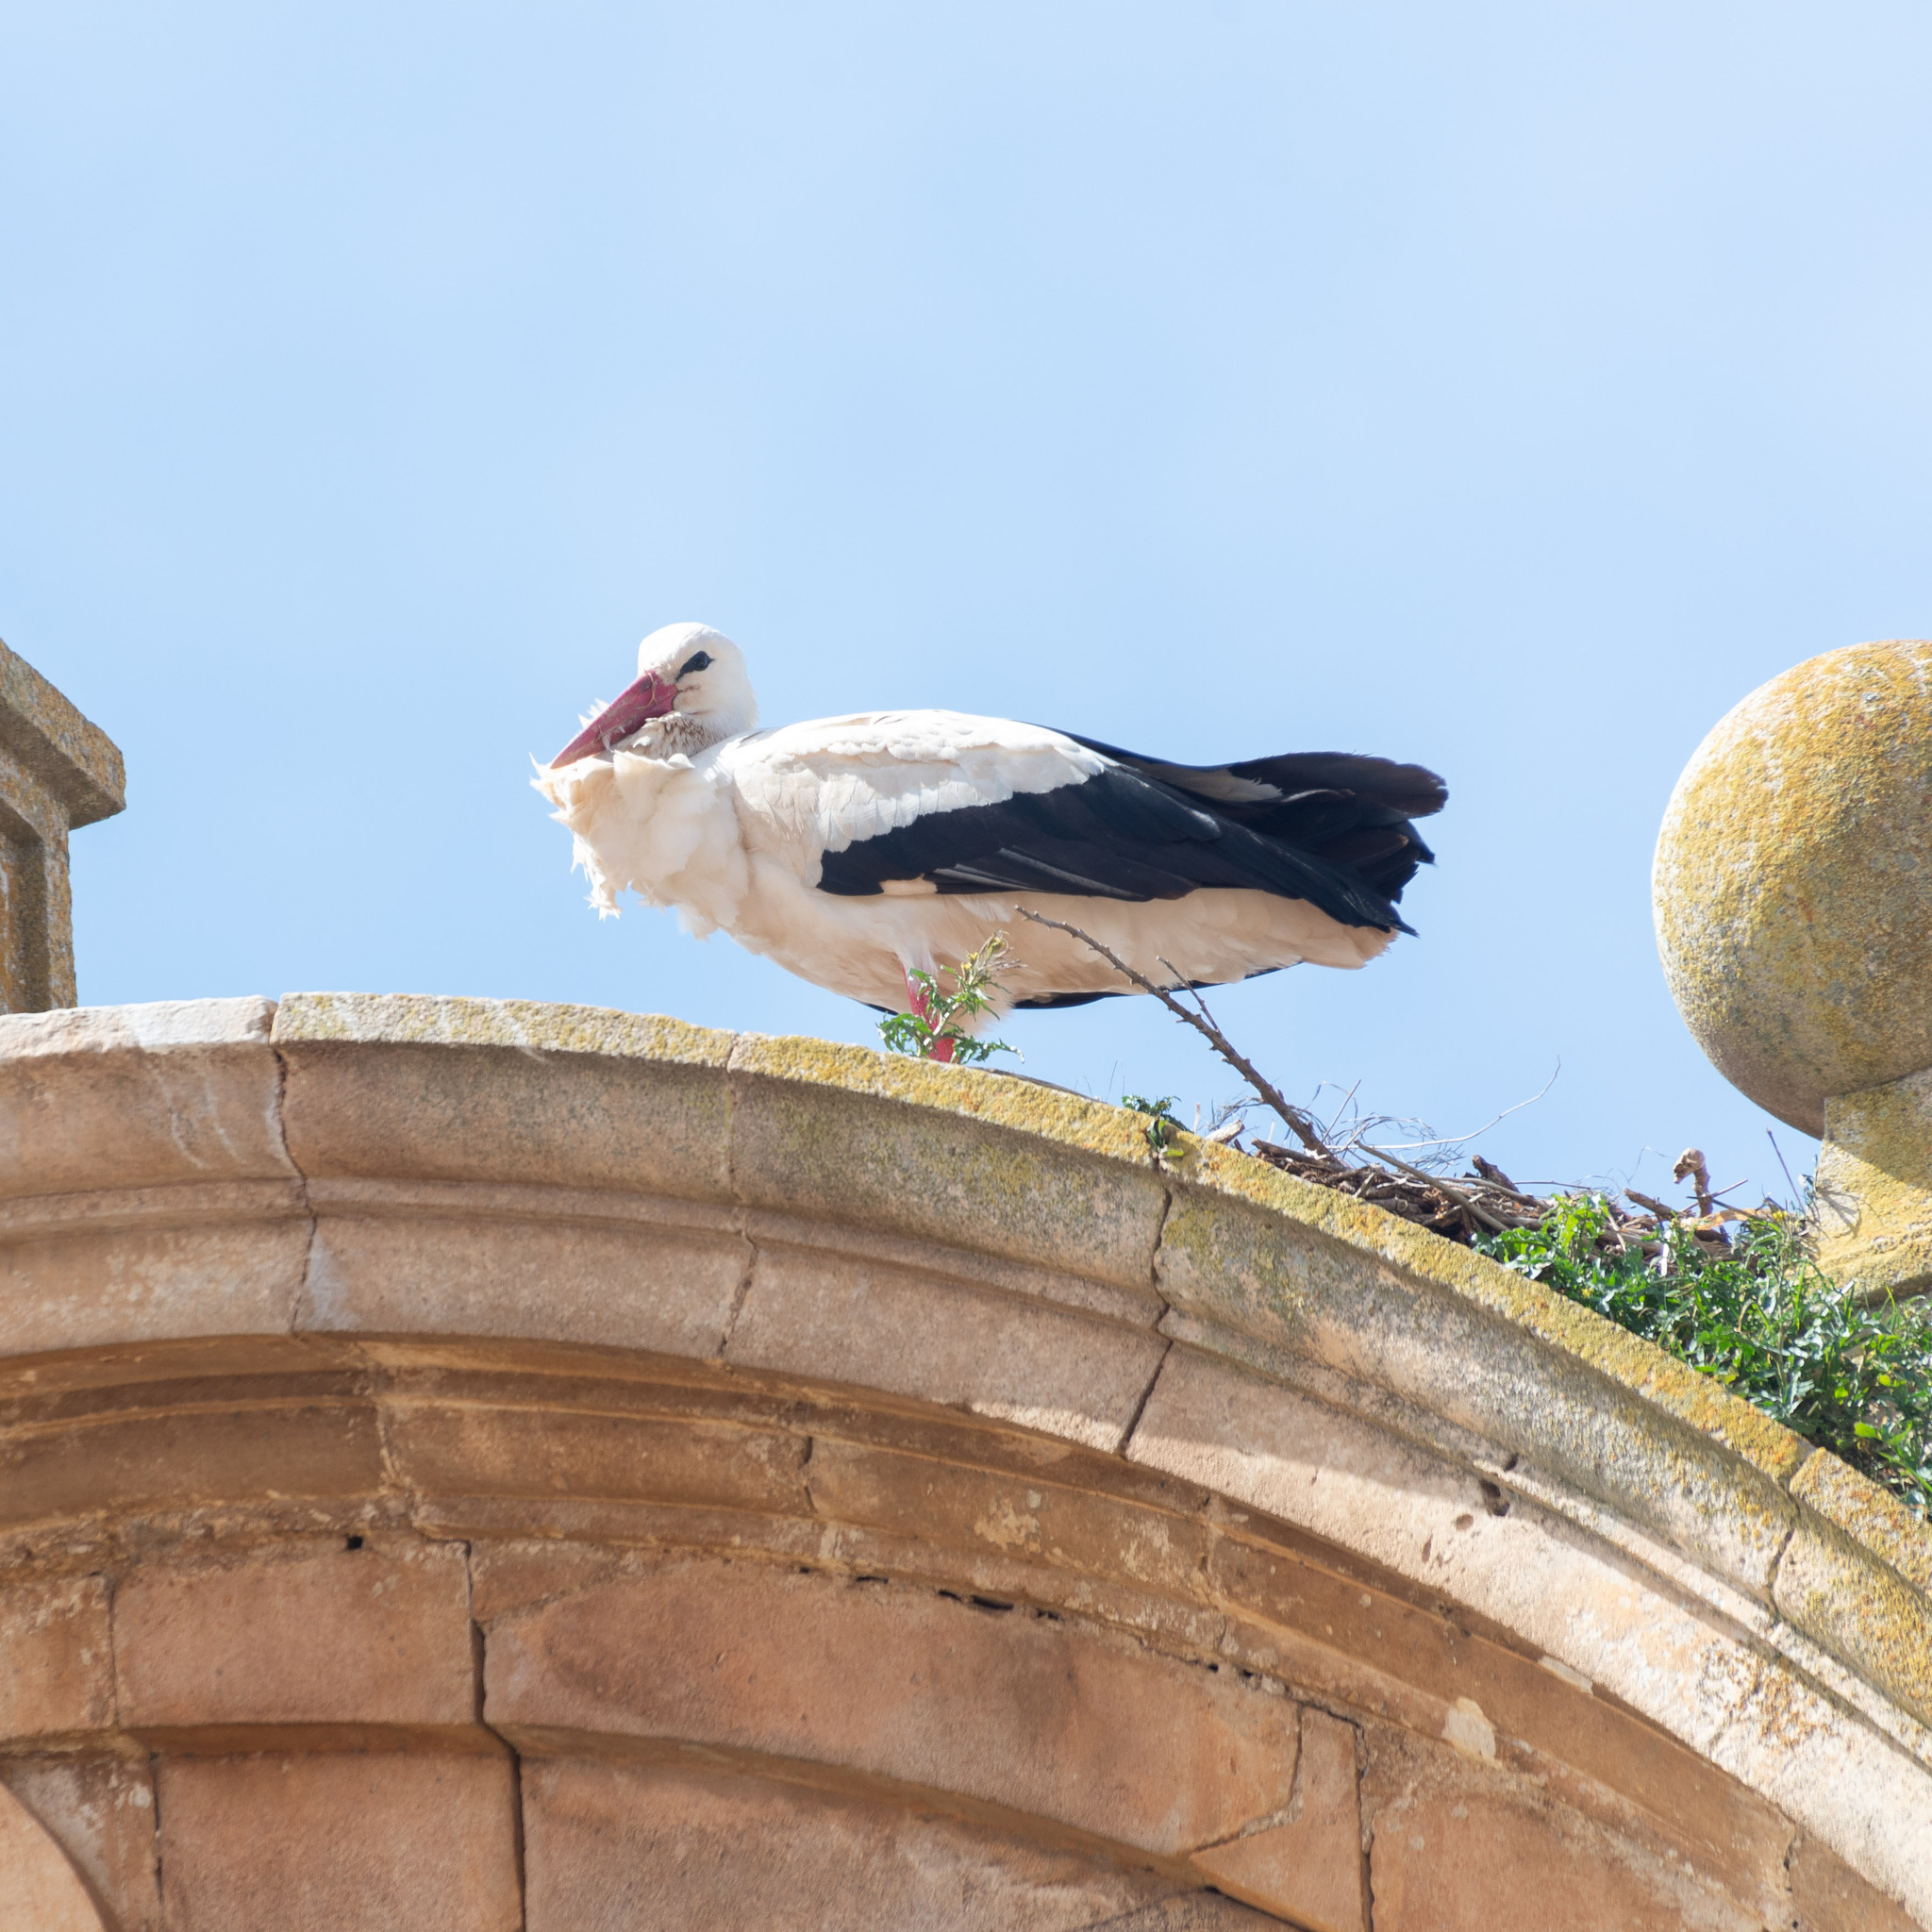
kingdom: Animalia
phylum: Chordata
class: Aves
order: Ciconiiformes
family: Ciconiidae
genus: Ciconia
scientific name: Ciconia ciconia
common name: White stork
